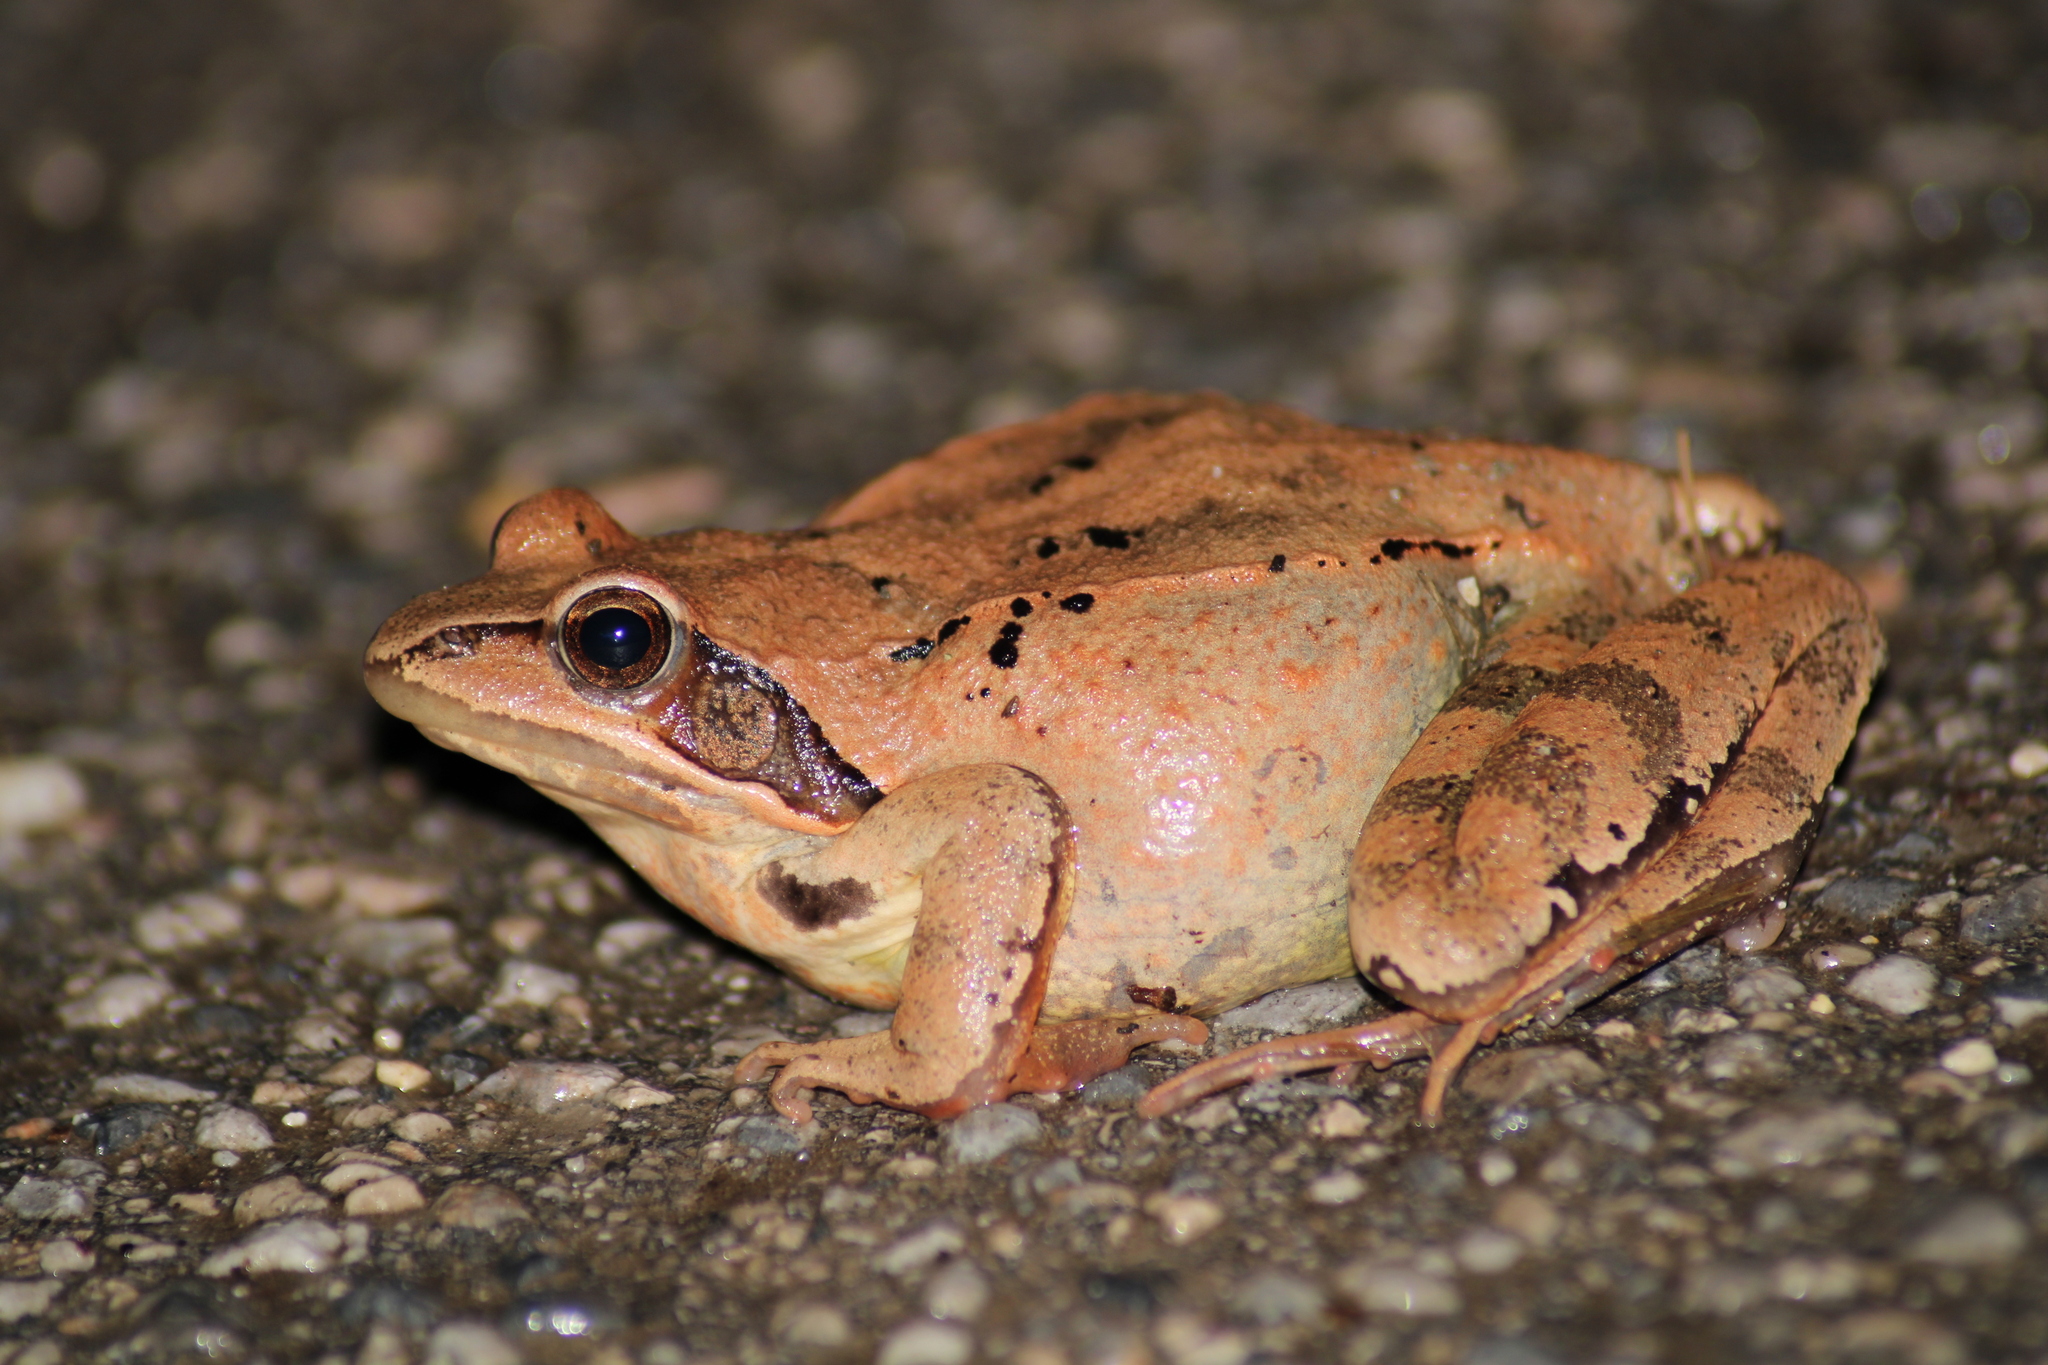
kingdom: Animalia
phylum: Chordata
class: Amphibia
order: Anura
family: Ranidae
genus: Rana
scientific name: Rana dalmatina
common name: Agile frog
